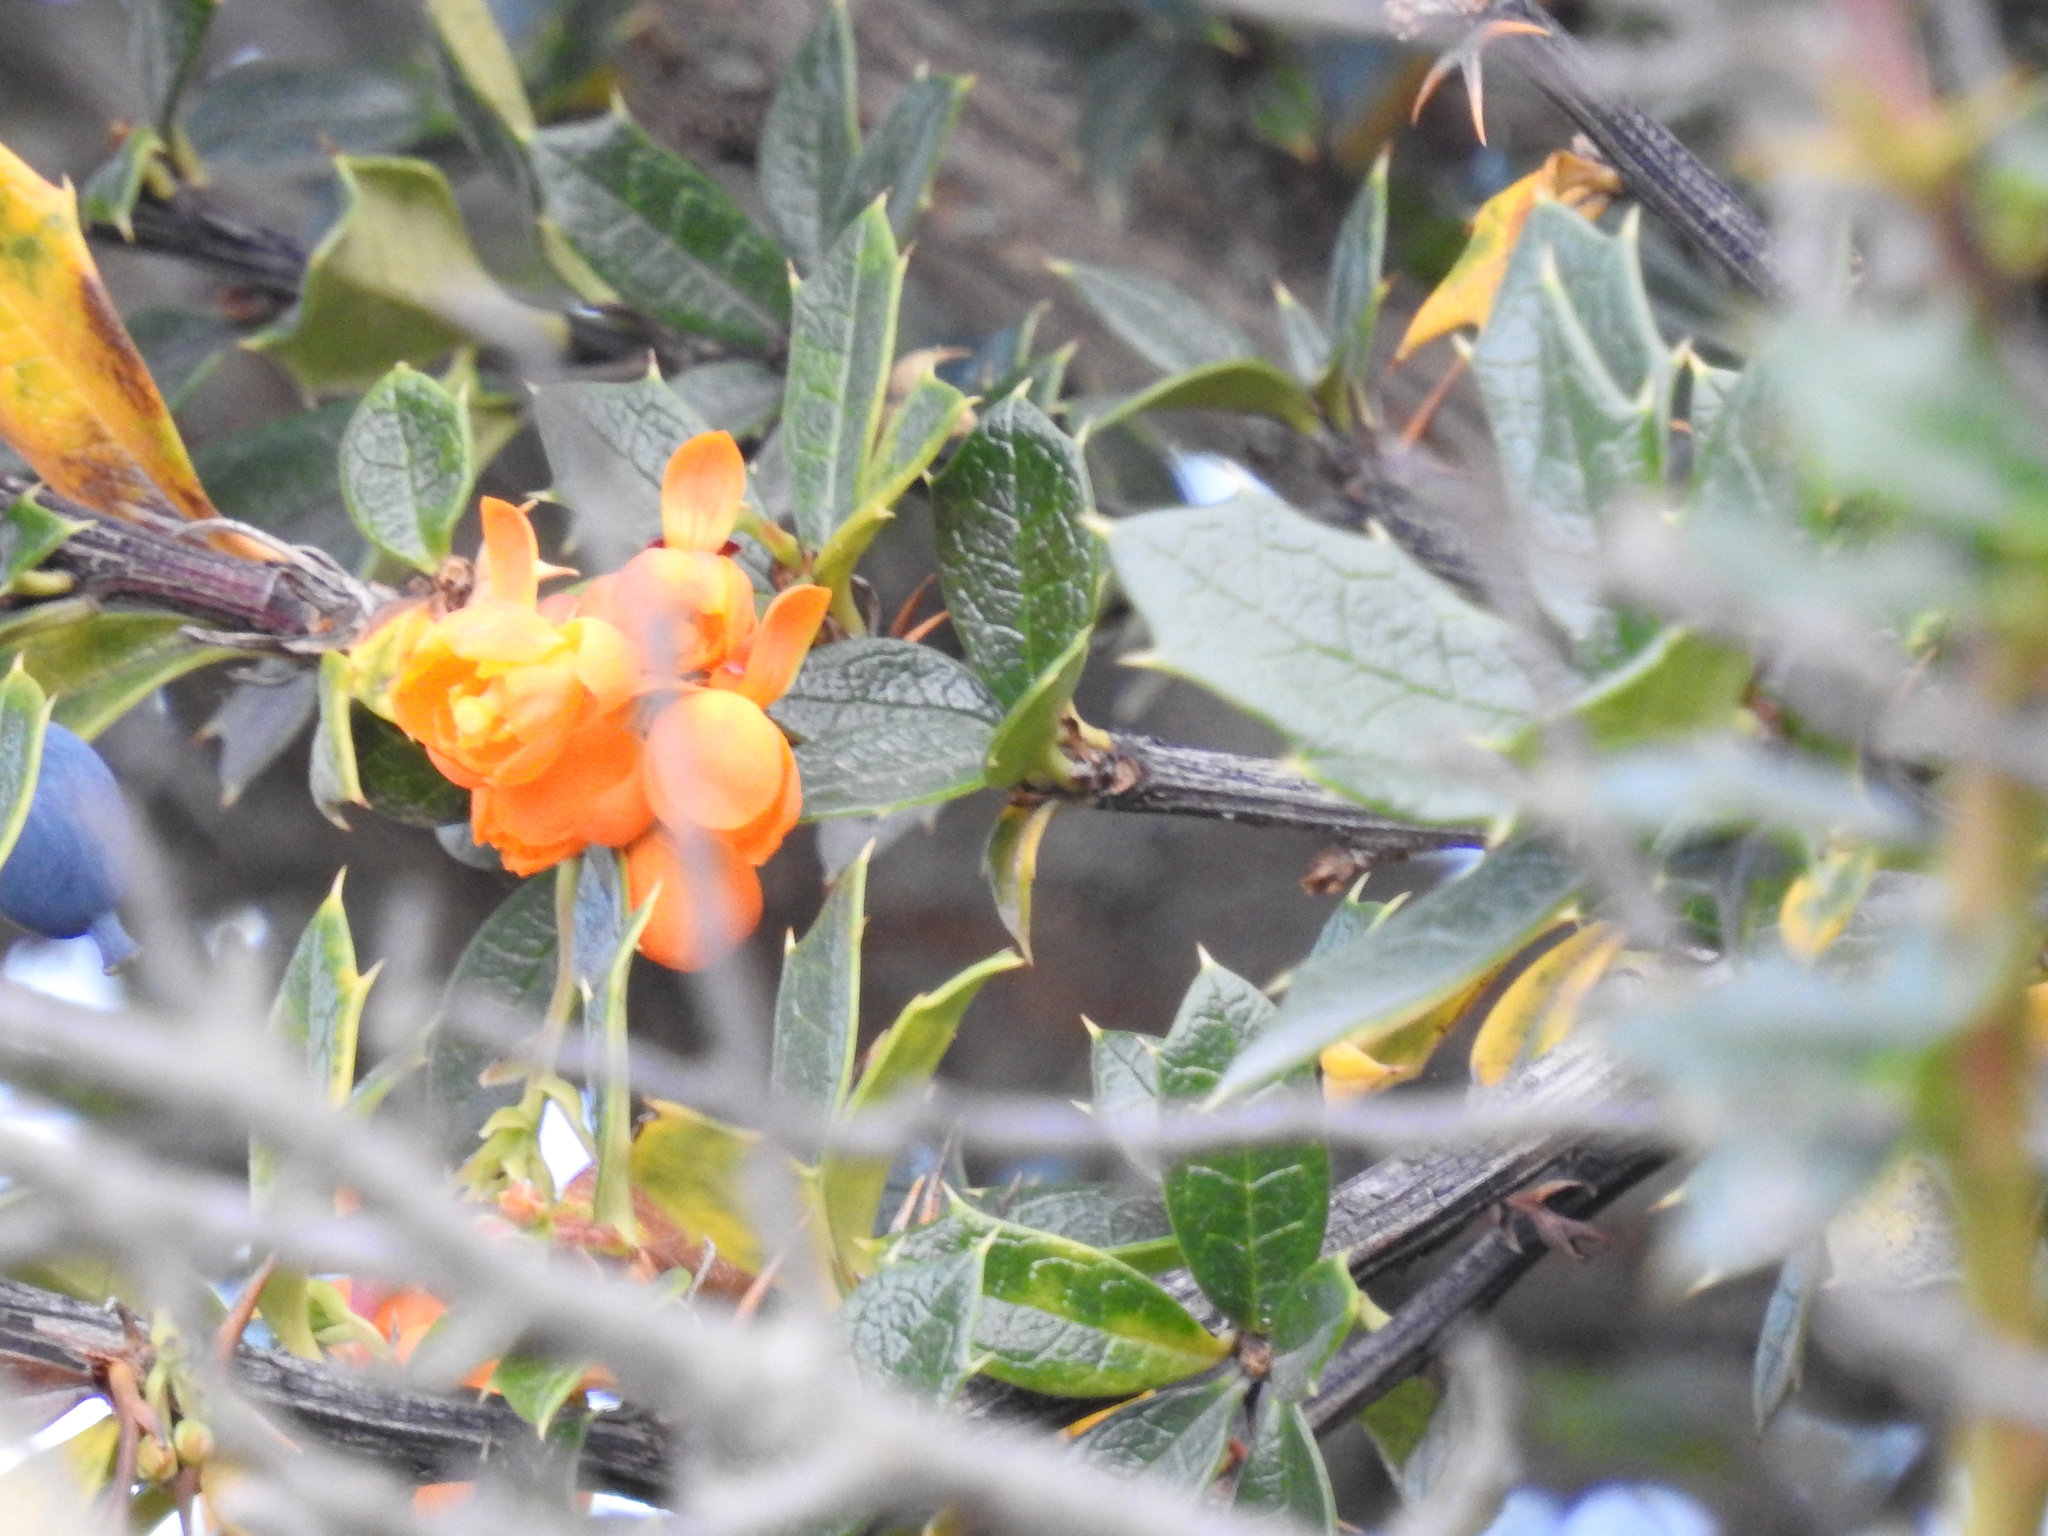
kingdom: Plantae
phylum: Tracheophyta
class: Magnoliopsida
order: Ranunculales
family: Berberidaceae
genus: Berberis
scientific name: Berberis ilicifolia
